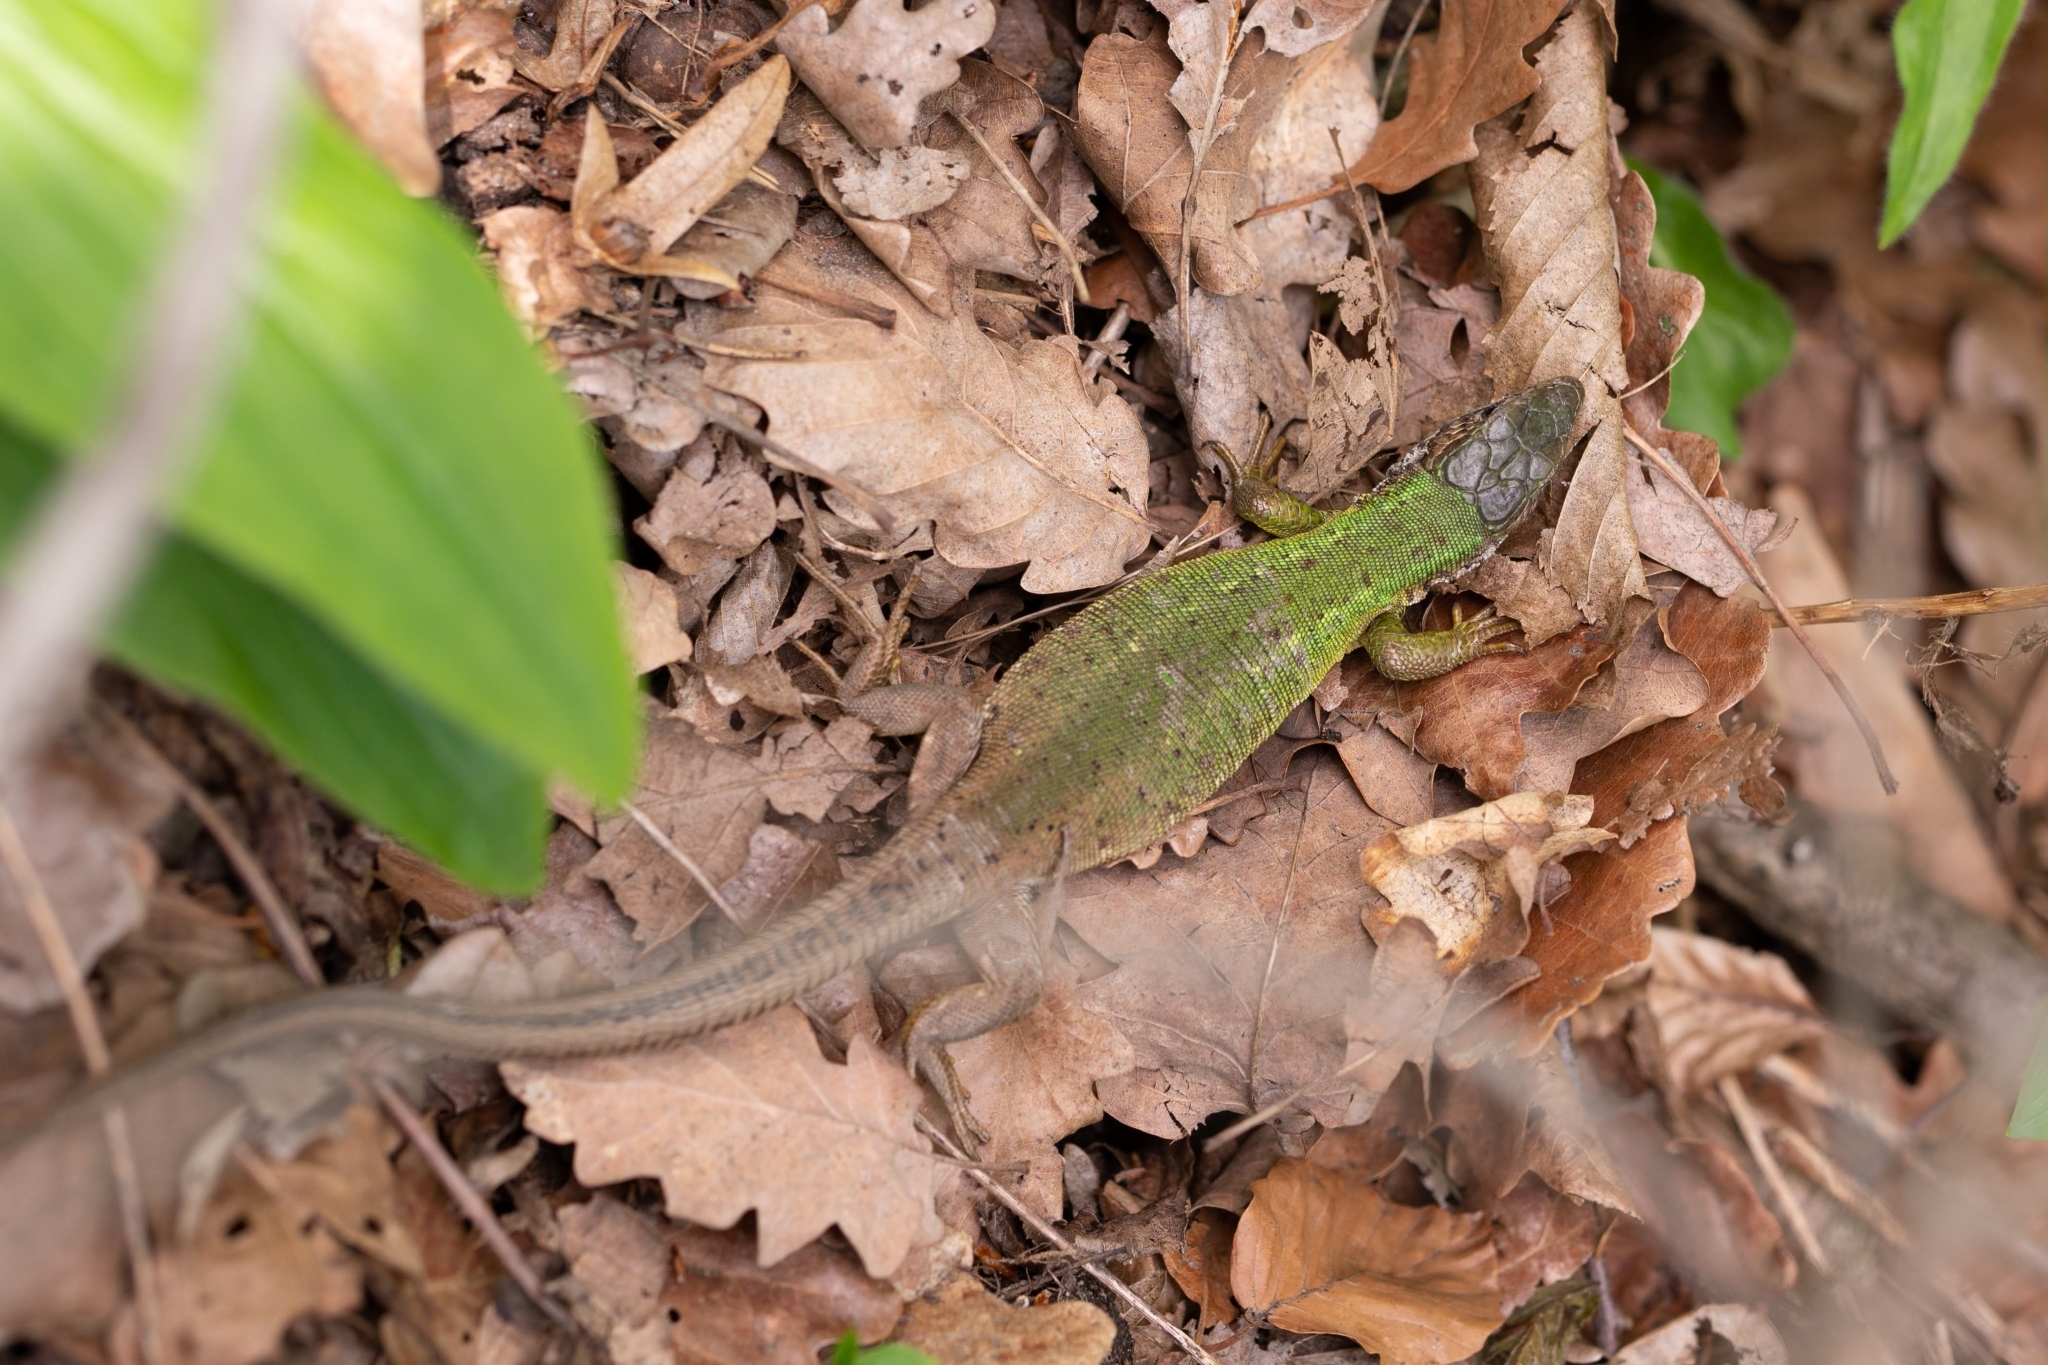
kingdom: Animalia
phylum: Chordata
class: Squamata
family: Lacertidae
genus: Lacerta
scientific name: Lacerta viridis
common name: European green lizard
